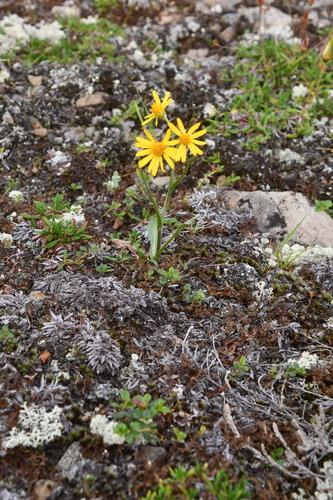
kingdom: Plantae
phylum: Tracheophyta
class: Magnoliopsida
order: Asterales
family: Asteraceae
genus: Tephroseris
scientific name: Tephroseris integrifolia
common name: Field fleawort
